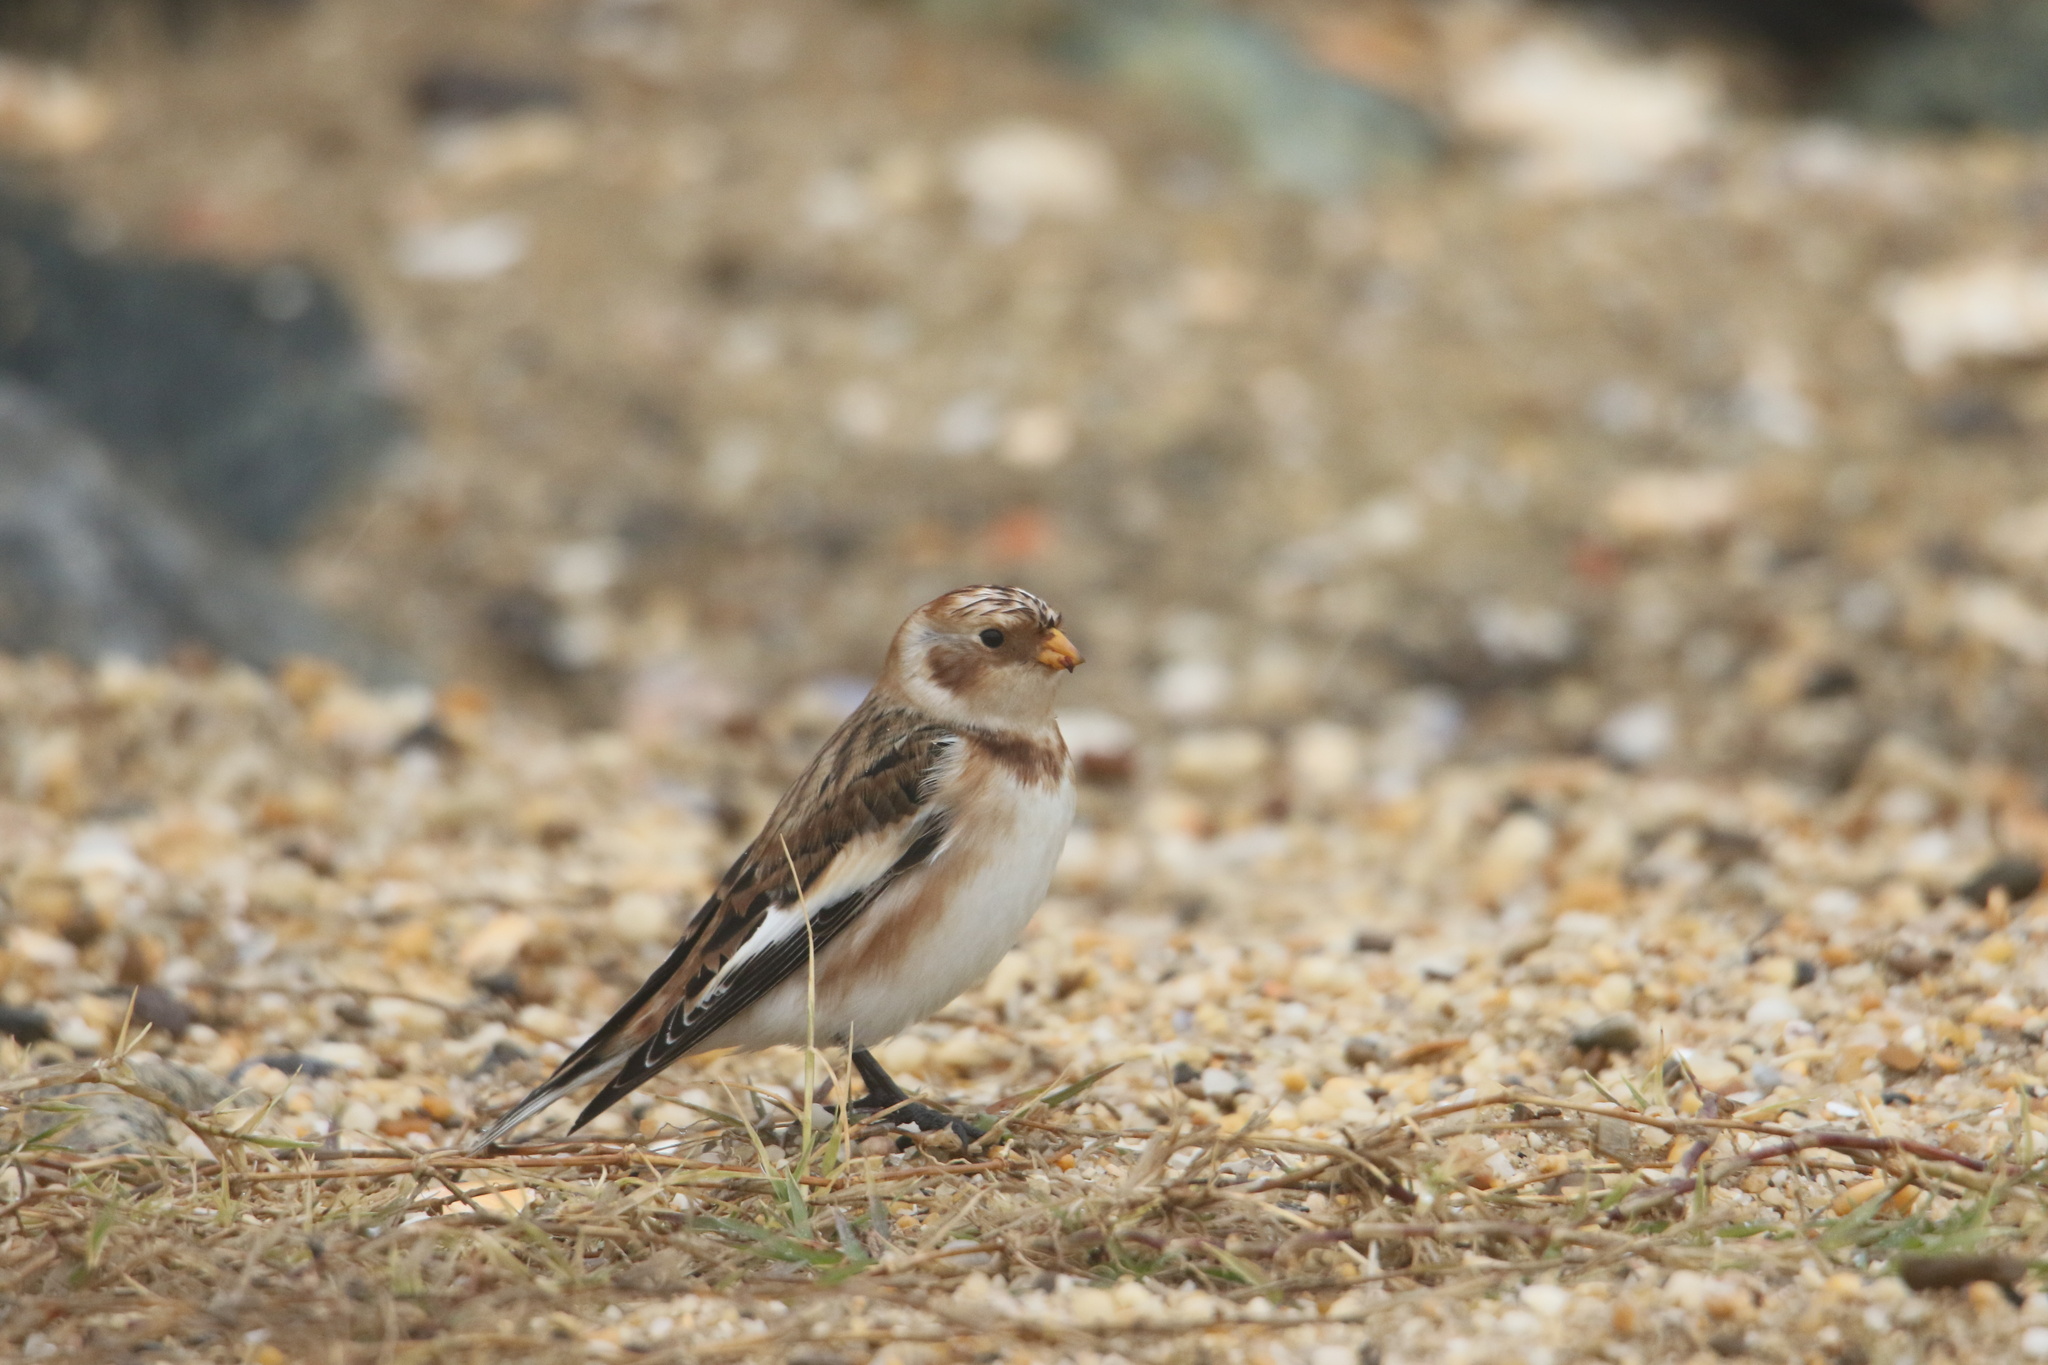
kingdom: Animalia
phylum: Chordata
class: Aves
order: Passeriformes
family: Calcariidae
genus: Plectrophenax
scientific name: Plectrophenax nivalis
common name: Snow bunting
